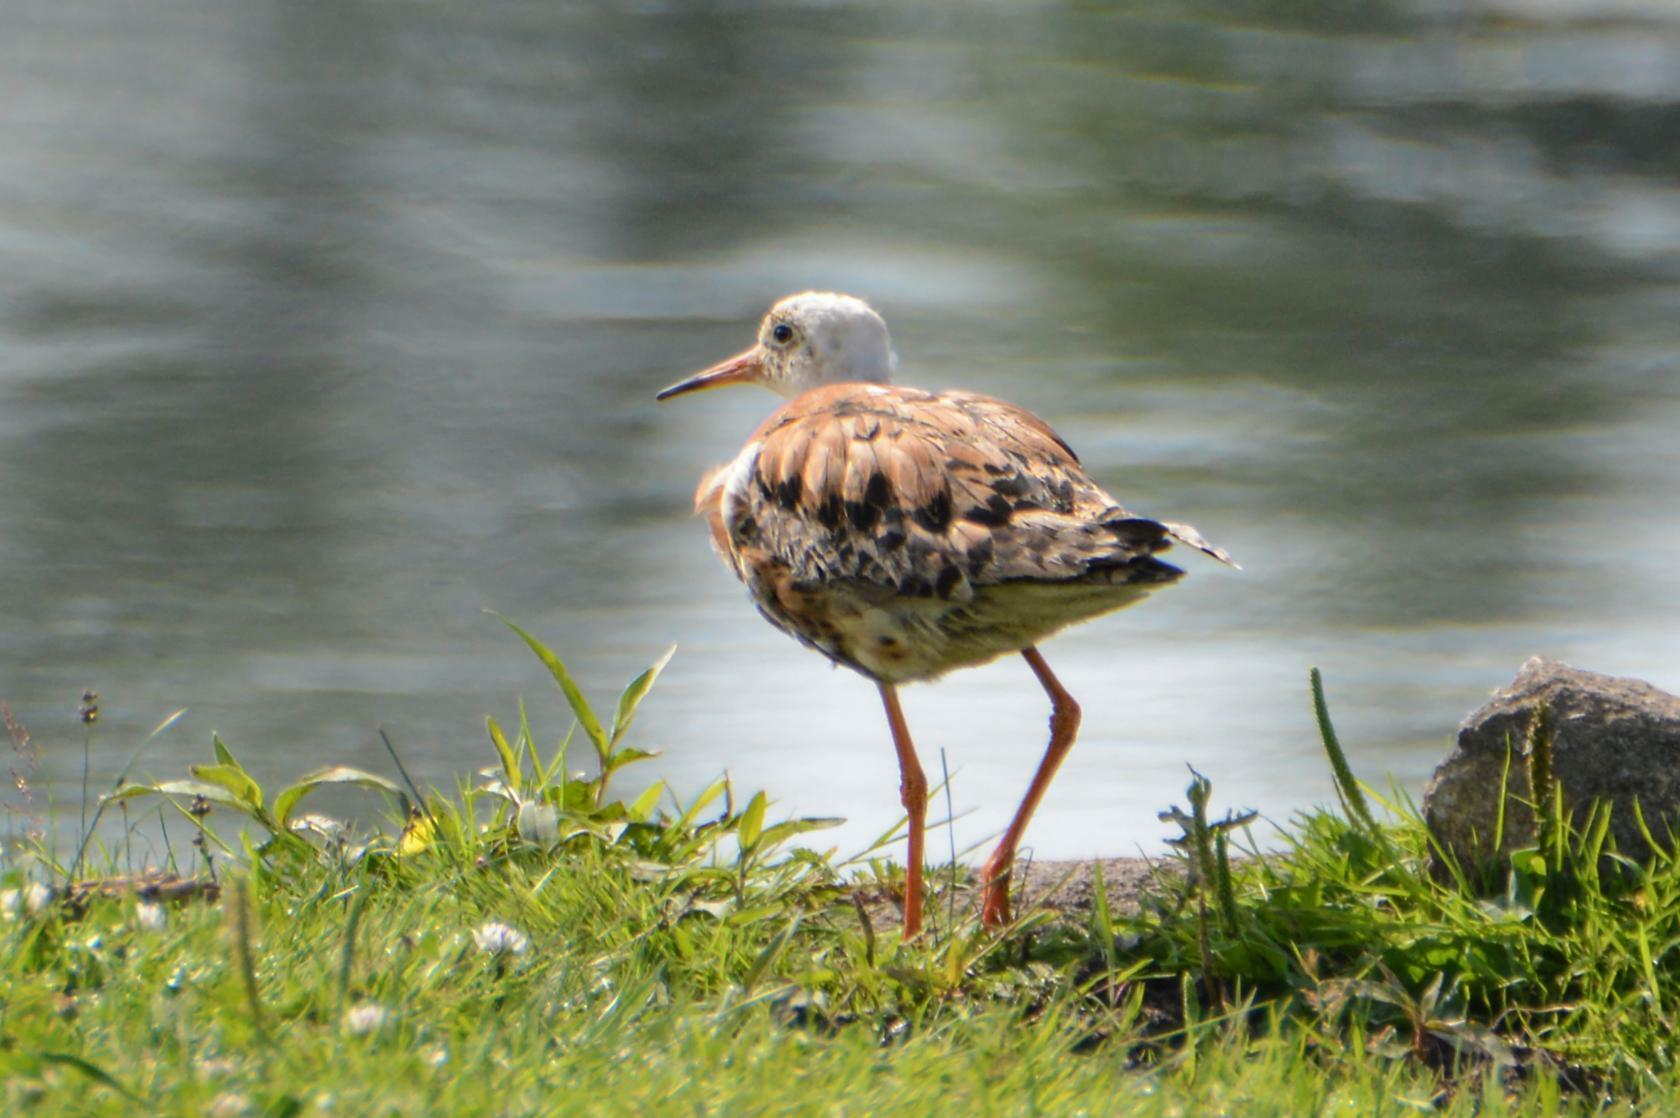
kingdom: Animalia
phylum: Chordata
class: Aves
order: Charadriiformes
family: Scolopacidae
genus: Calidris
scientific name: Calidris pugnax
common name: Ruff
